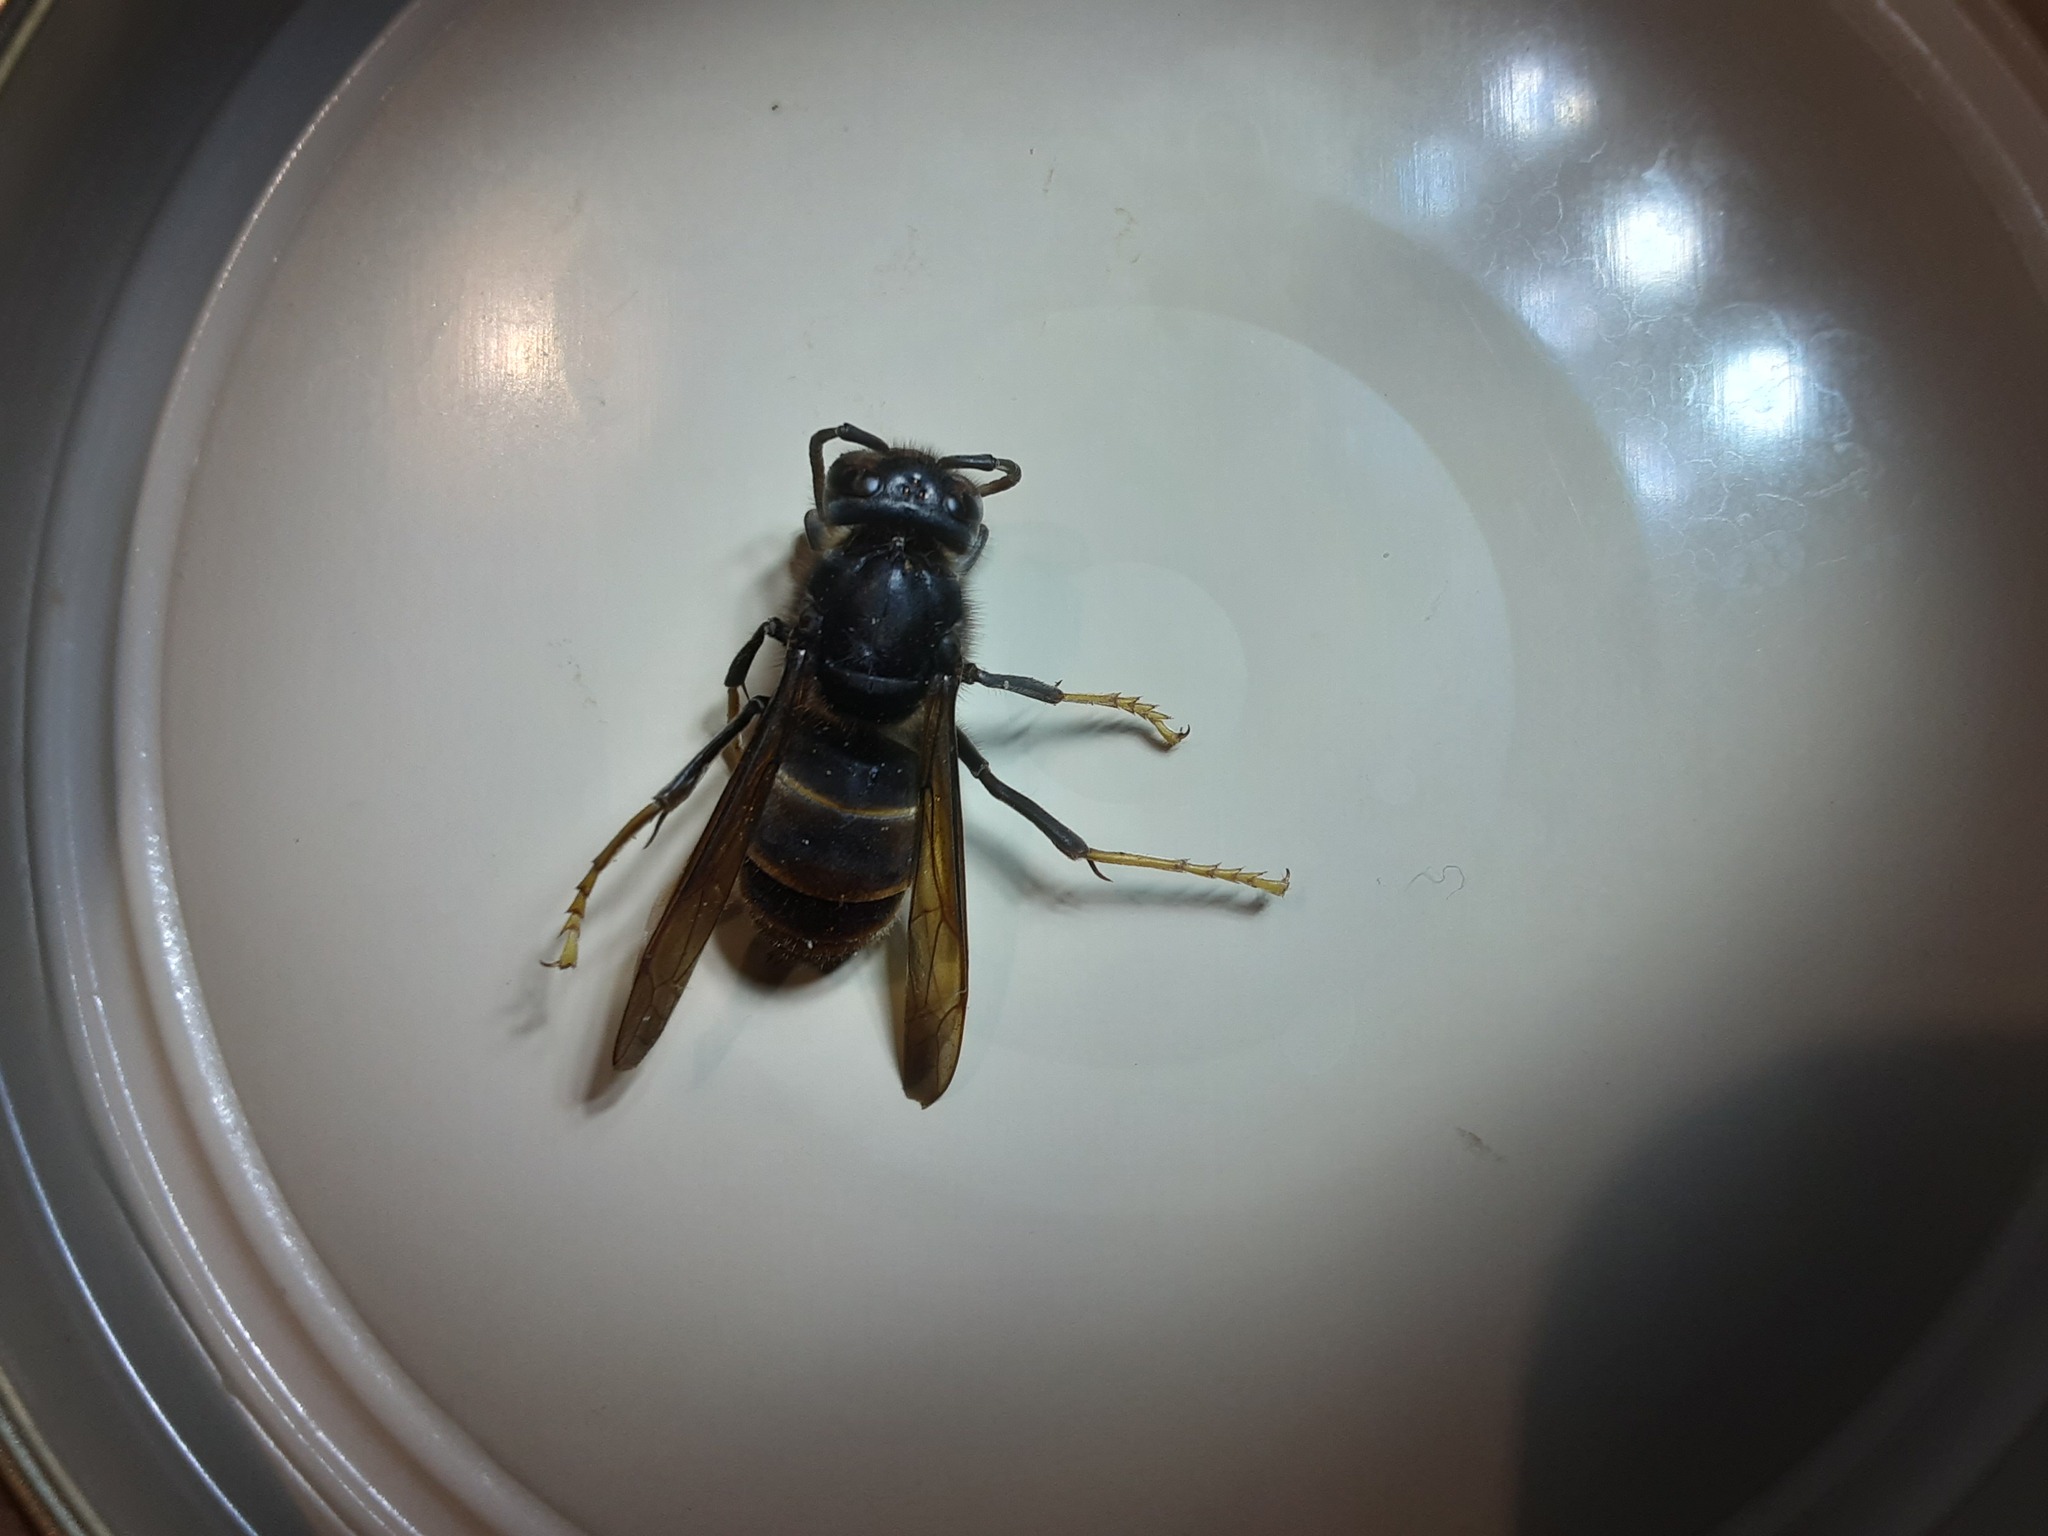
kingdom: Animalia
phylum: Arthropoda
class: Insecta
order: Hymenoptera
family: Vespidae
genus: Vespa
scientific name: Vespa velutina
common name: Asian hornet
